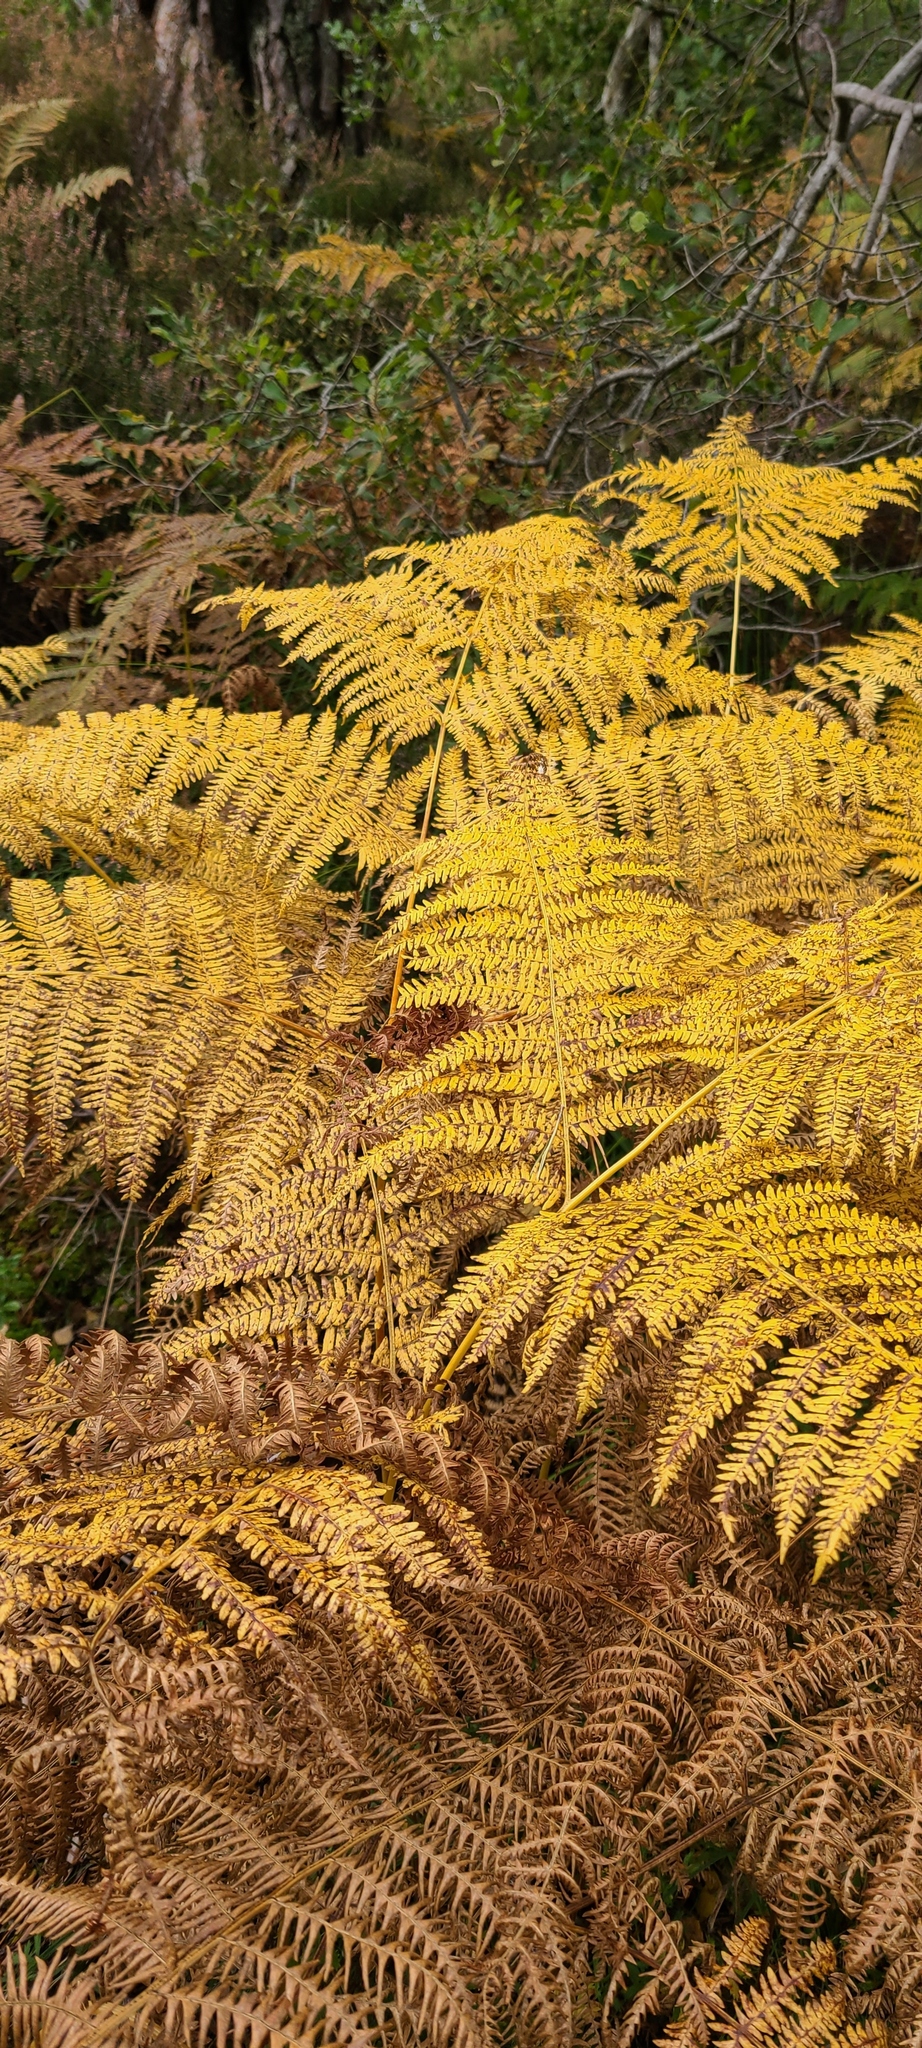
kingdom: Plantae
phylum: Tracheophyta
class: Polypodiopsida
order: Polypodiales
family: Dennstaedtiaceae
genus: Pteridium
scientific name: Pteridium aquilinum
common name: Bracken
